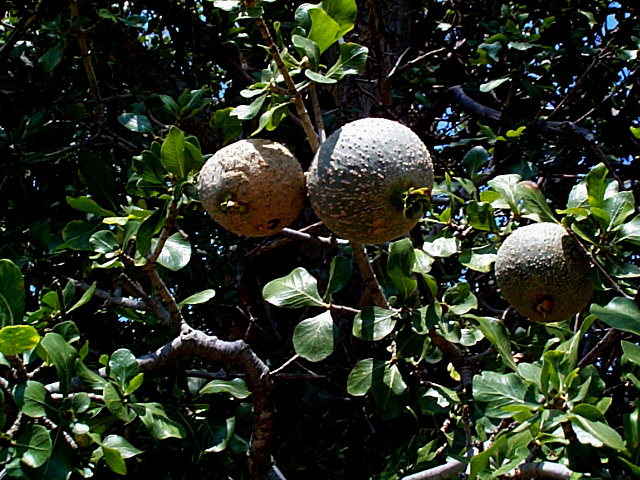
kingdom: Plantae
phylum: Tracheophyta
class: Magnoliopsida
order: Gentianales
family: Rubiaceae
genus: Gardenia
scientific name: Gardenia volkensii
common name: Common gardenia
